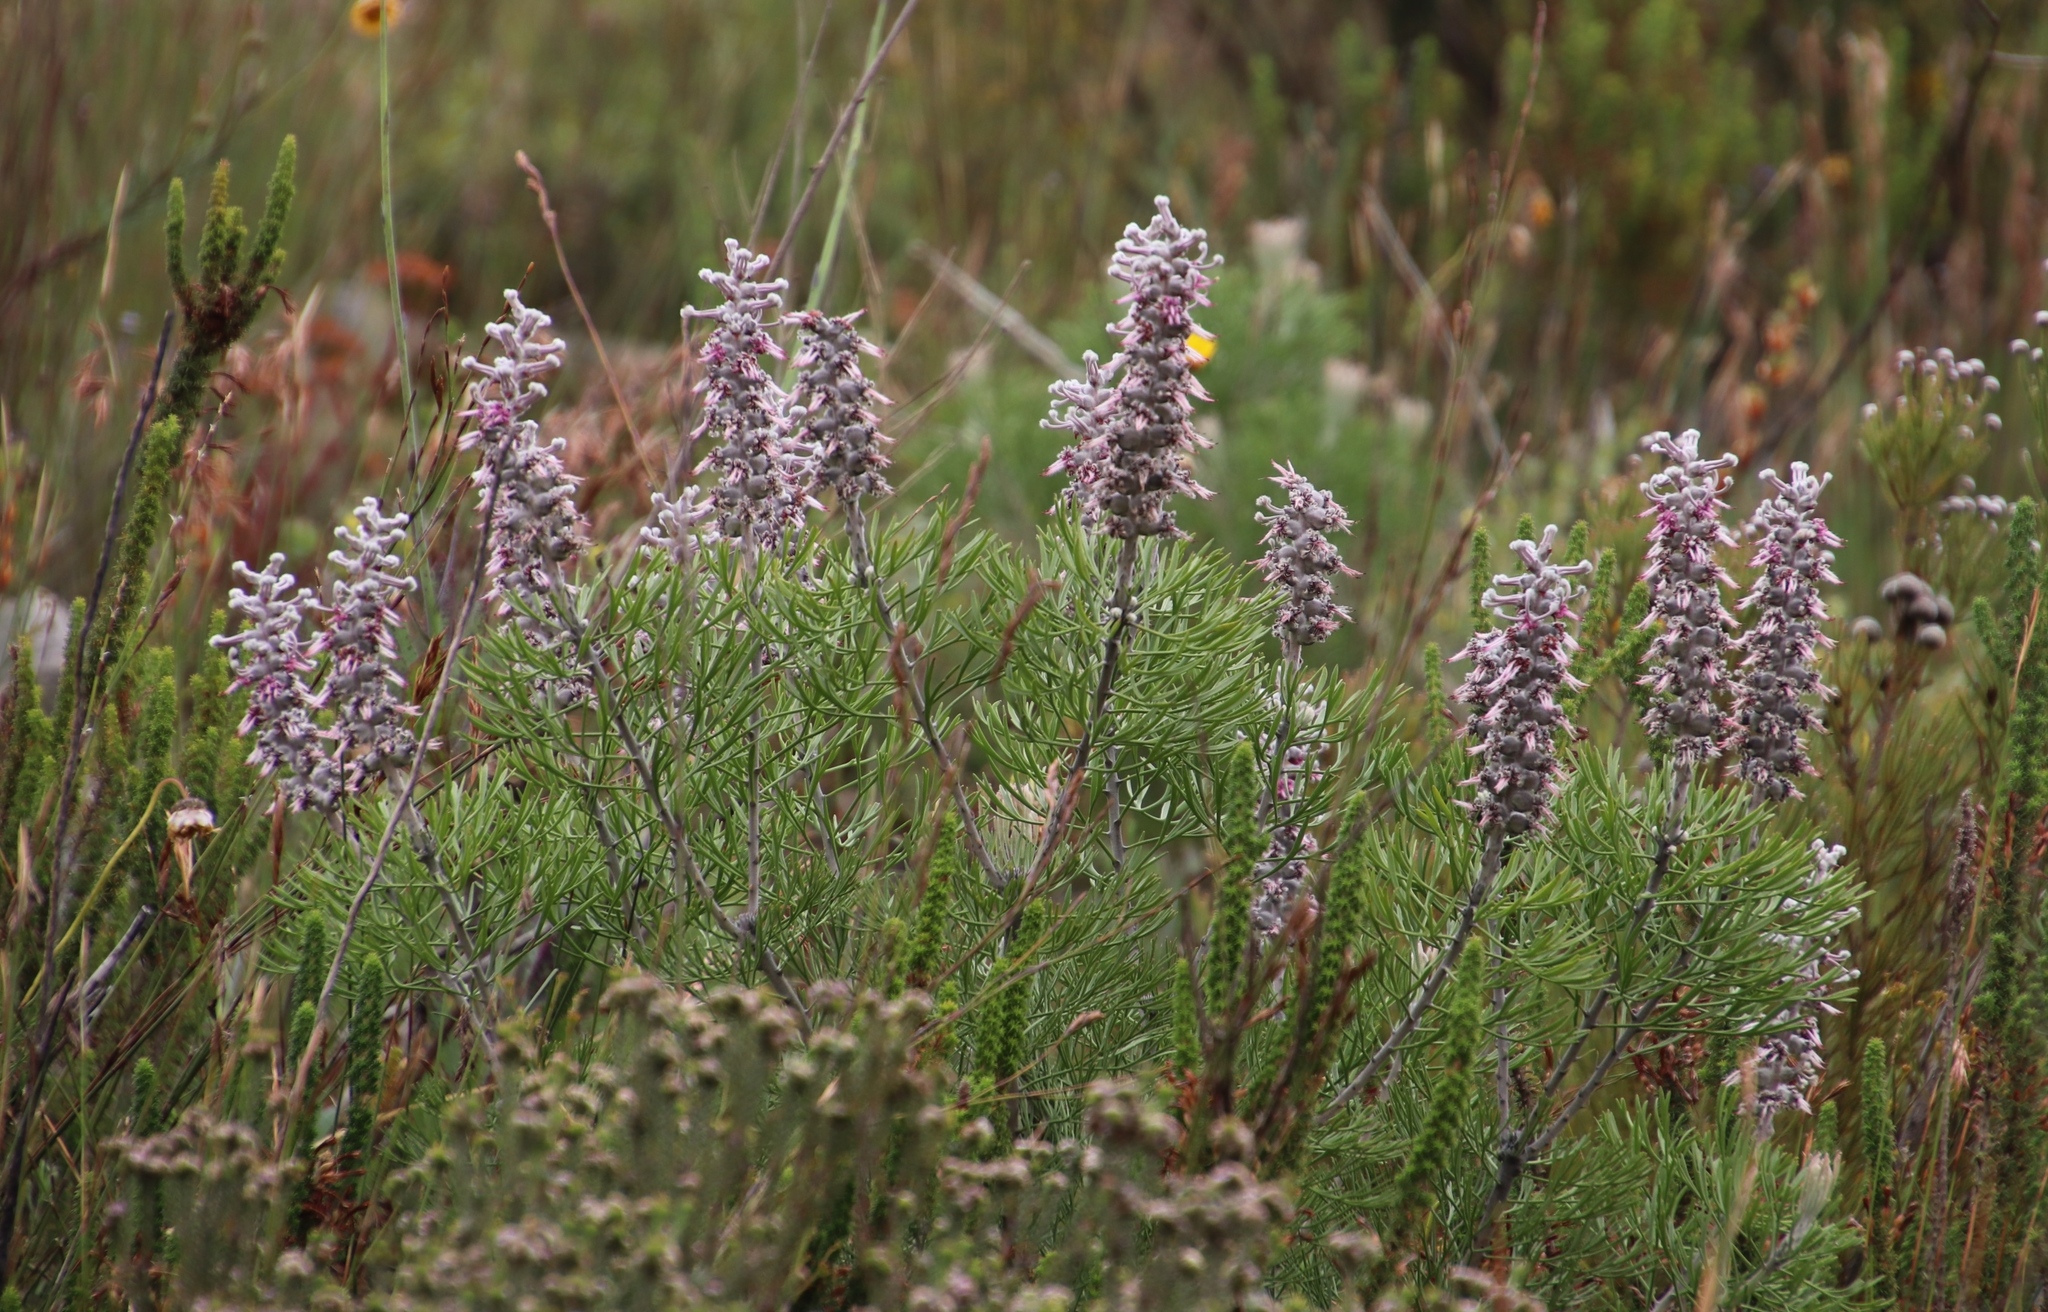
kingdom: Plantae
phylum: Tracheophyta
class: Magnoliopsida
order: Proteales
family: Proteaceae
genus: Paranomus
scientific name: Paranomus dispersus
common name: Long-head sceptre
